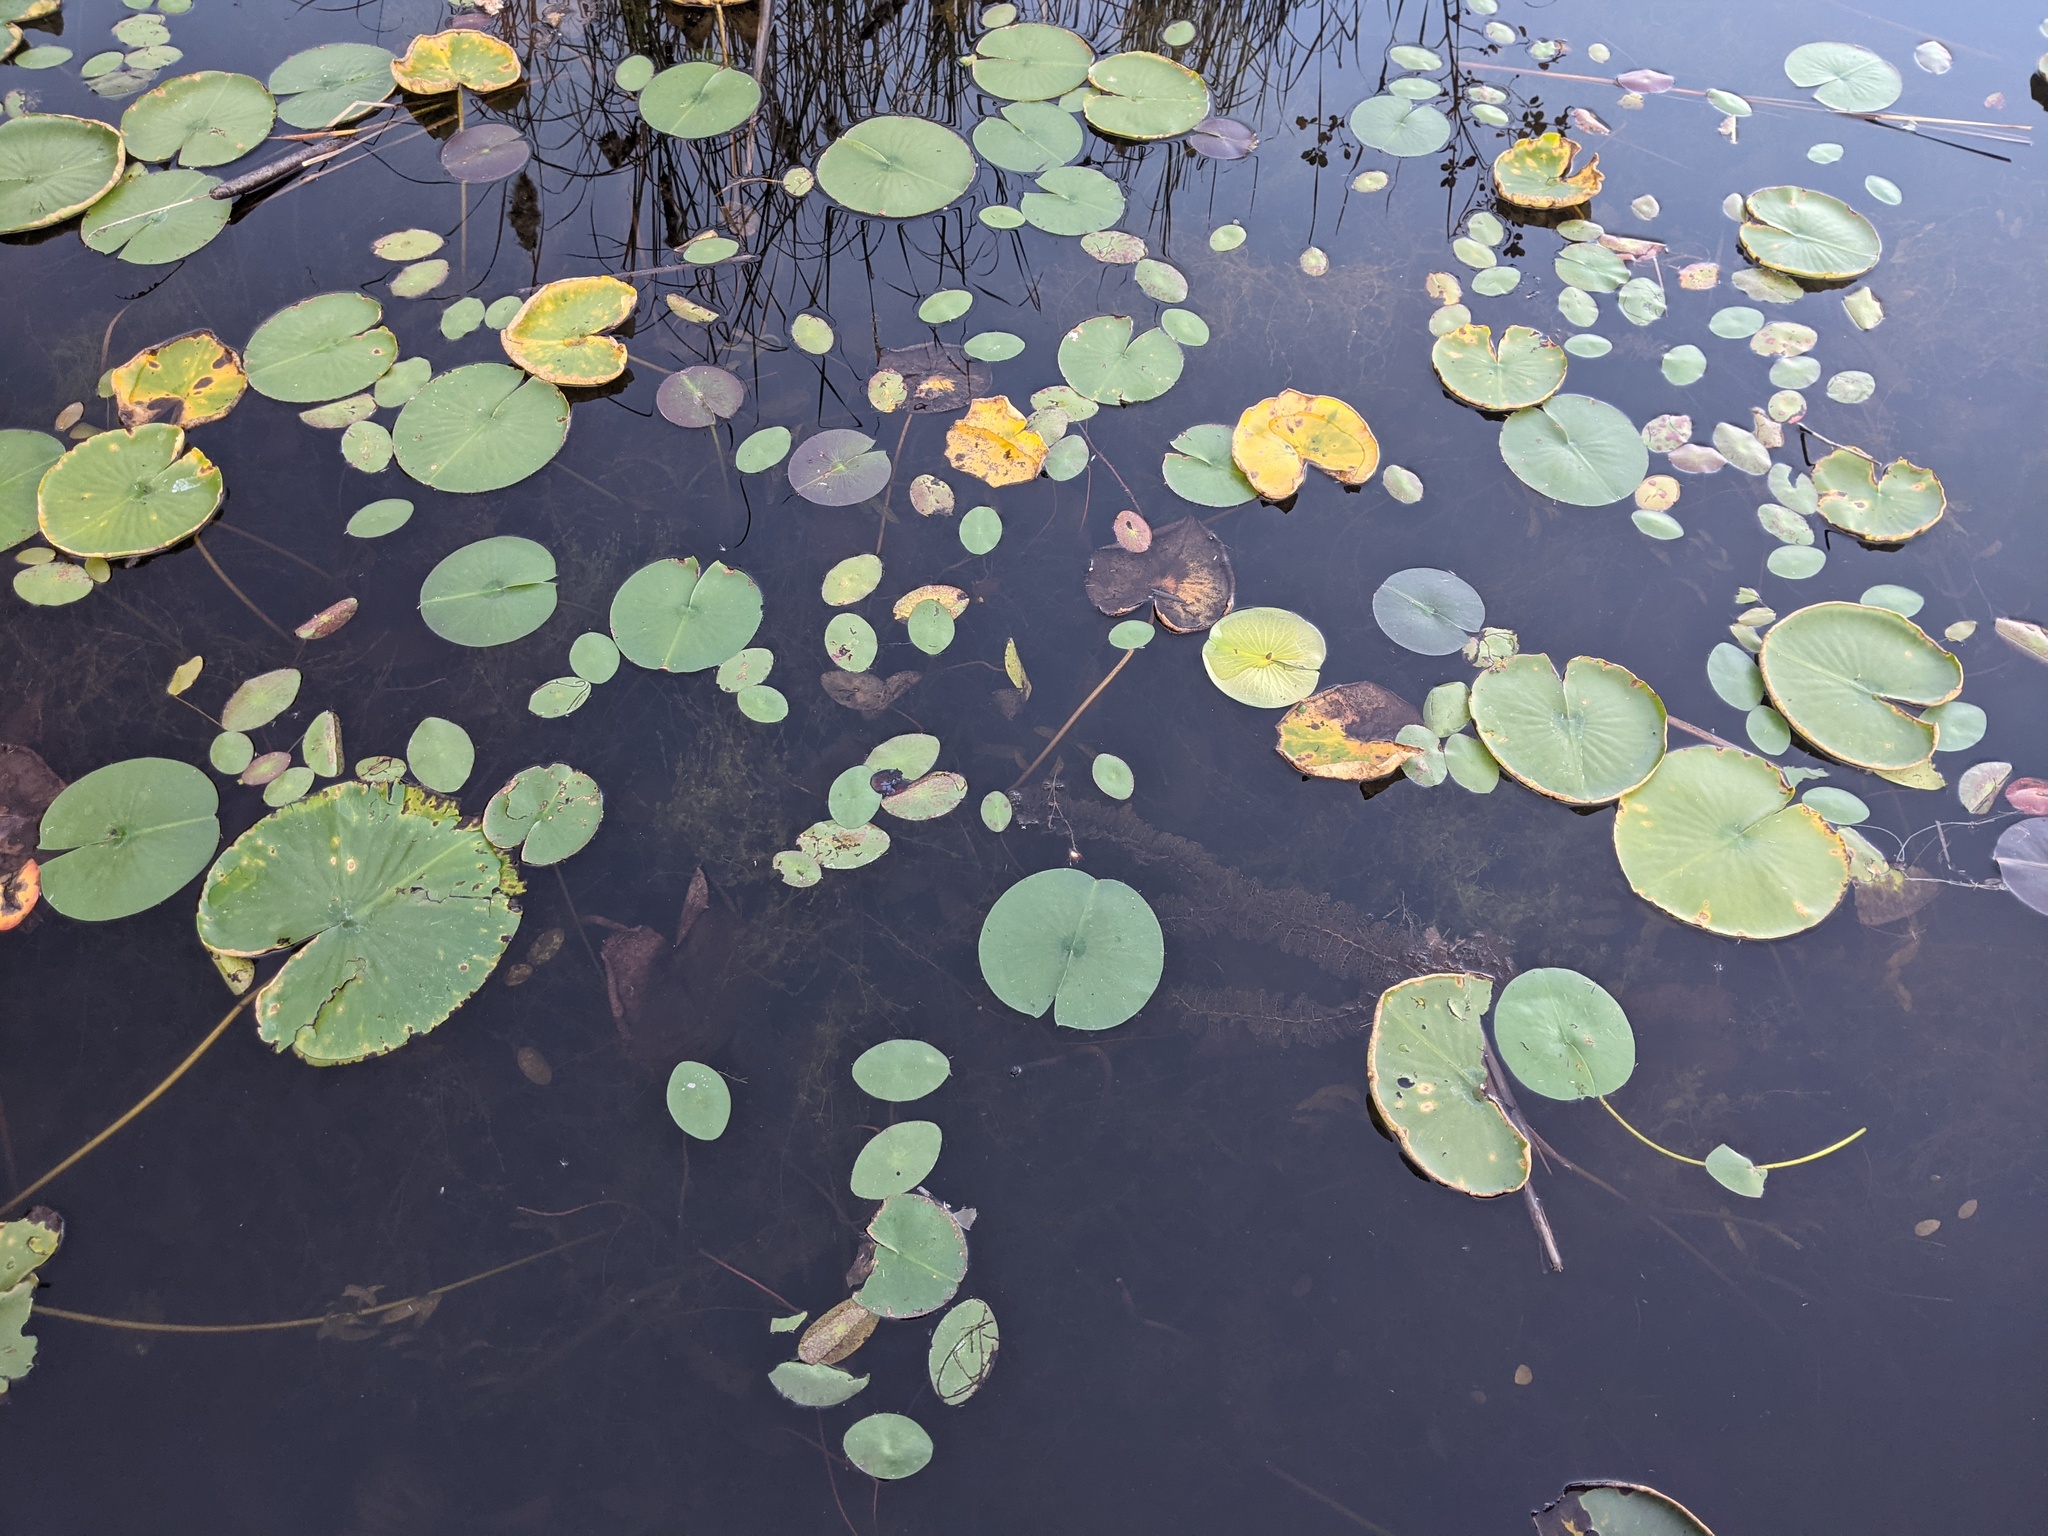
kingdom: Plantae
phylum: Tracheophyta
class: Magnoliopsida
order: Nymphaeales
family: Nymphaeaceae
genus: Nymphaea
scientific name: Nymphaea odorata
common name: Fragrant water-lily
